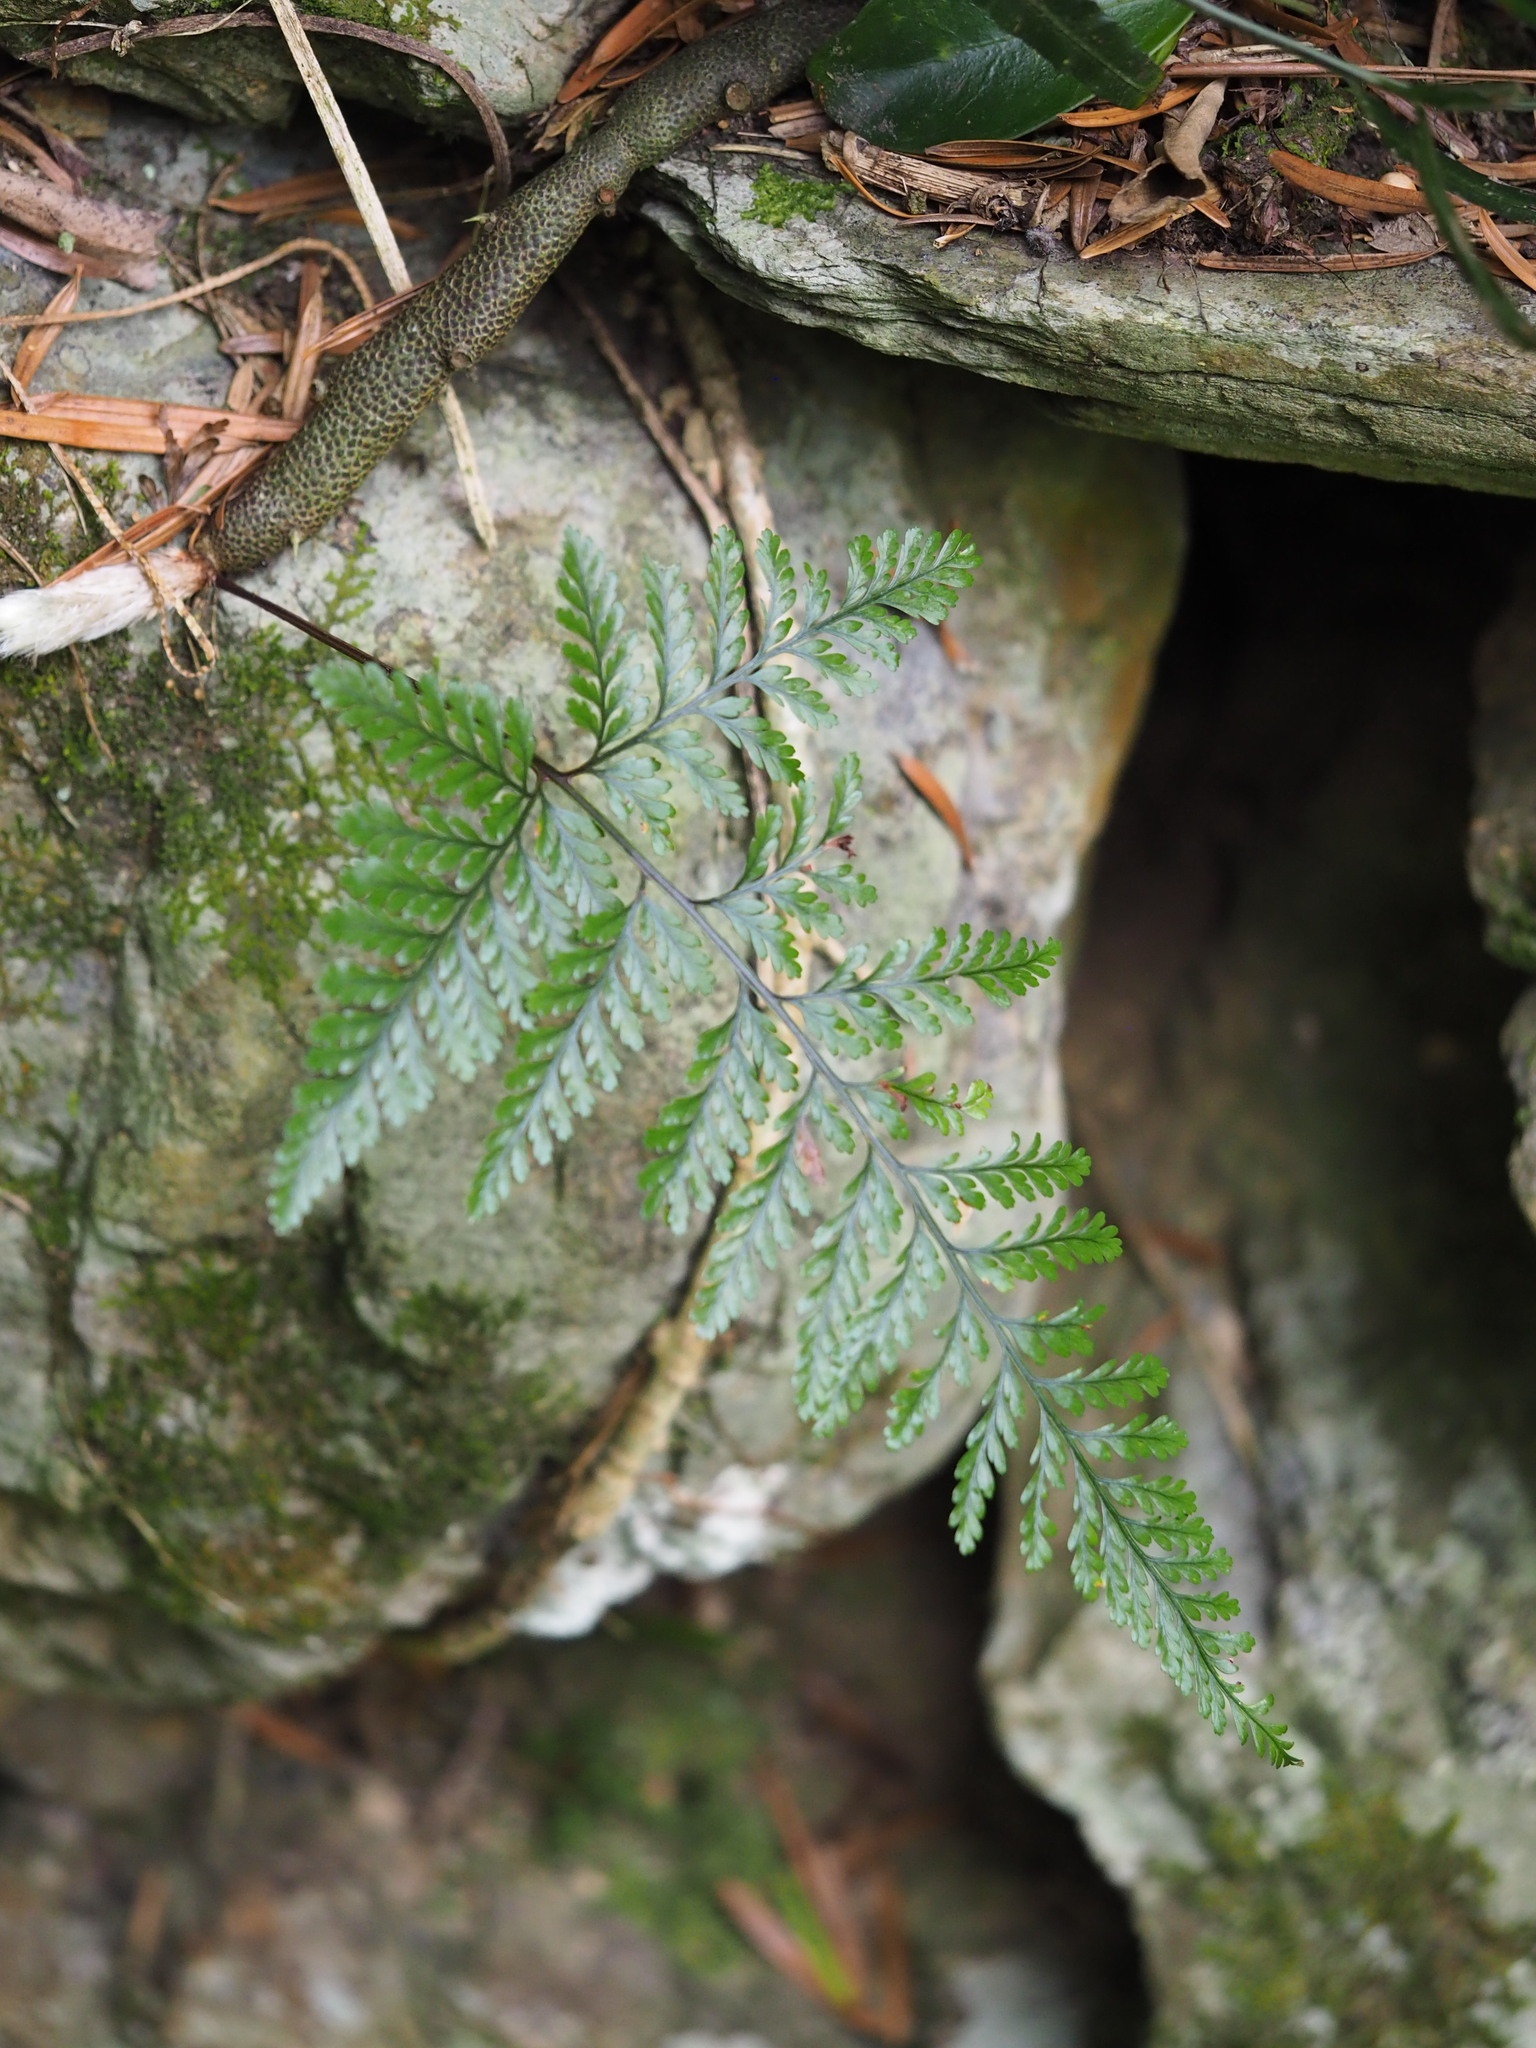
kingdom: Plantae
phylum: Tracheophyta
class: Polypodiopsida
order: Polypodiales
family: Davalliaceae
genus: Davallia
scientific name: Davallia griffithiana
